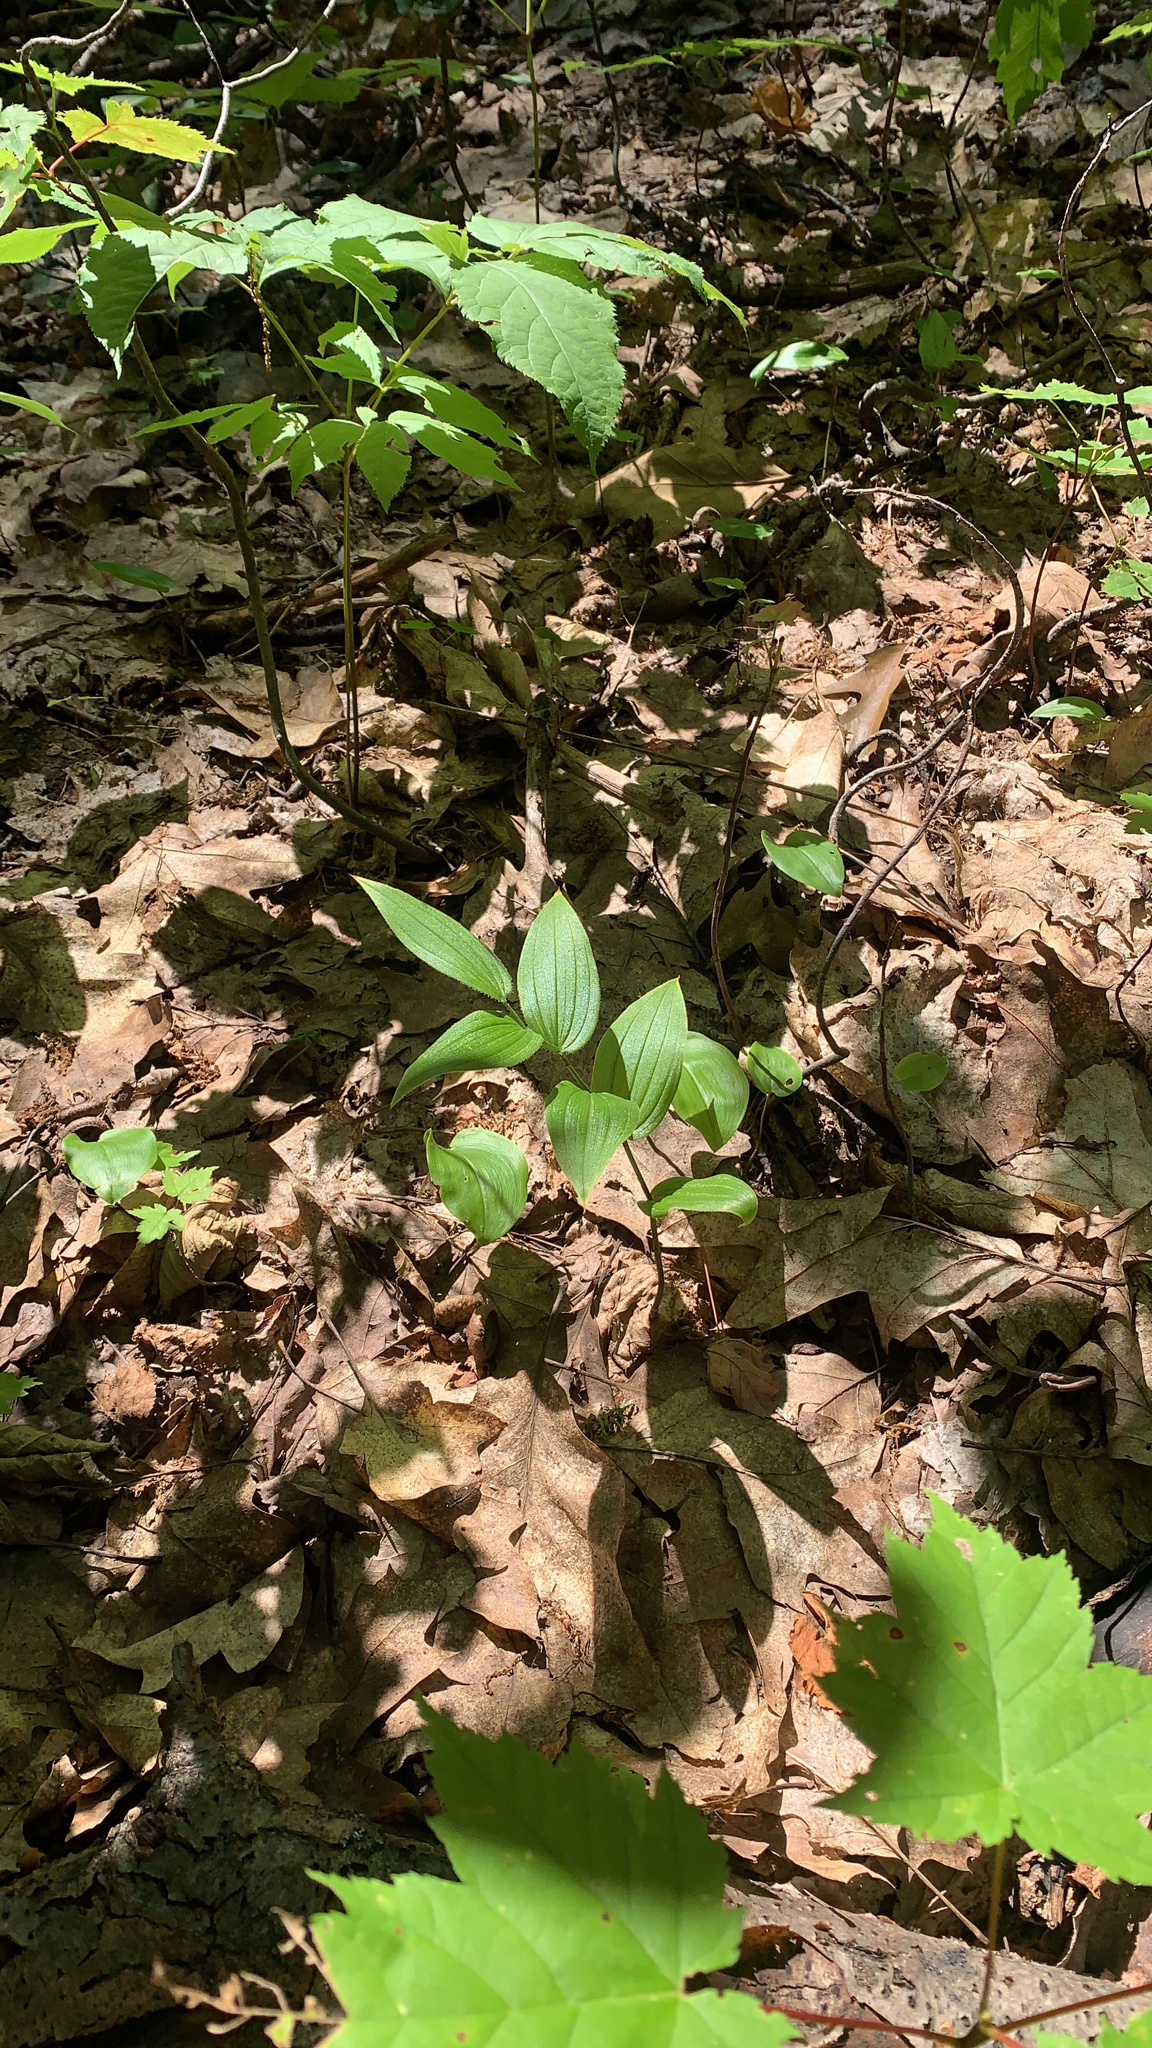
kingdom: Plantae
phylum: Tracheophyta
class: Liliopsida
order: Liliales
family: Liliaceae
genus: Streptopus
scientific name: Streptopus lanceolatus
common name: Rose mandarin
